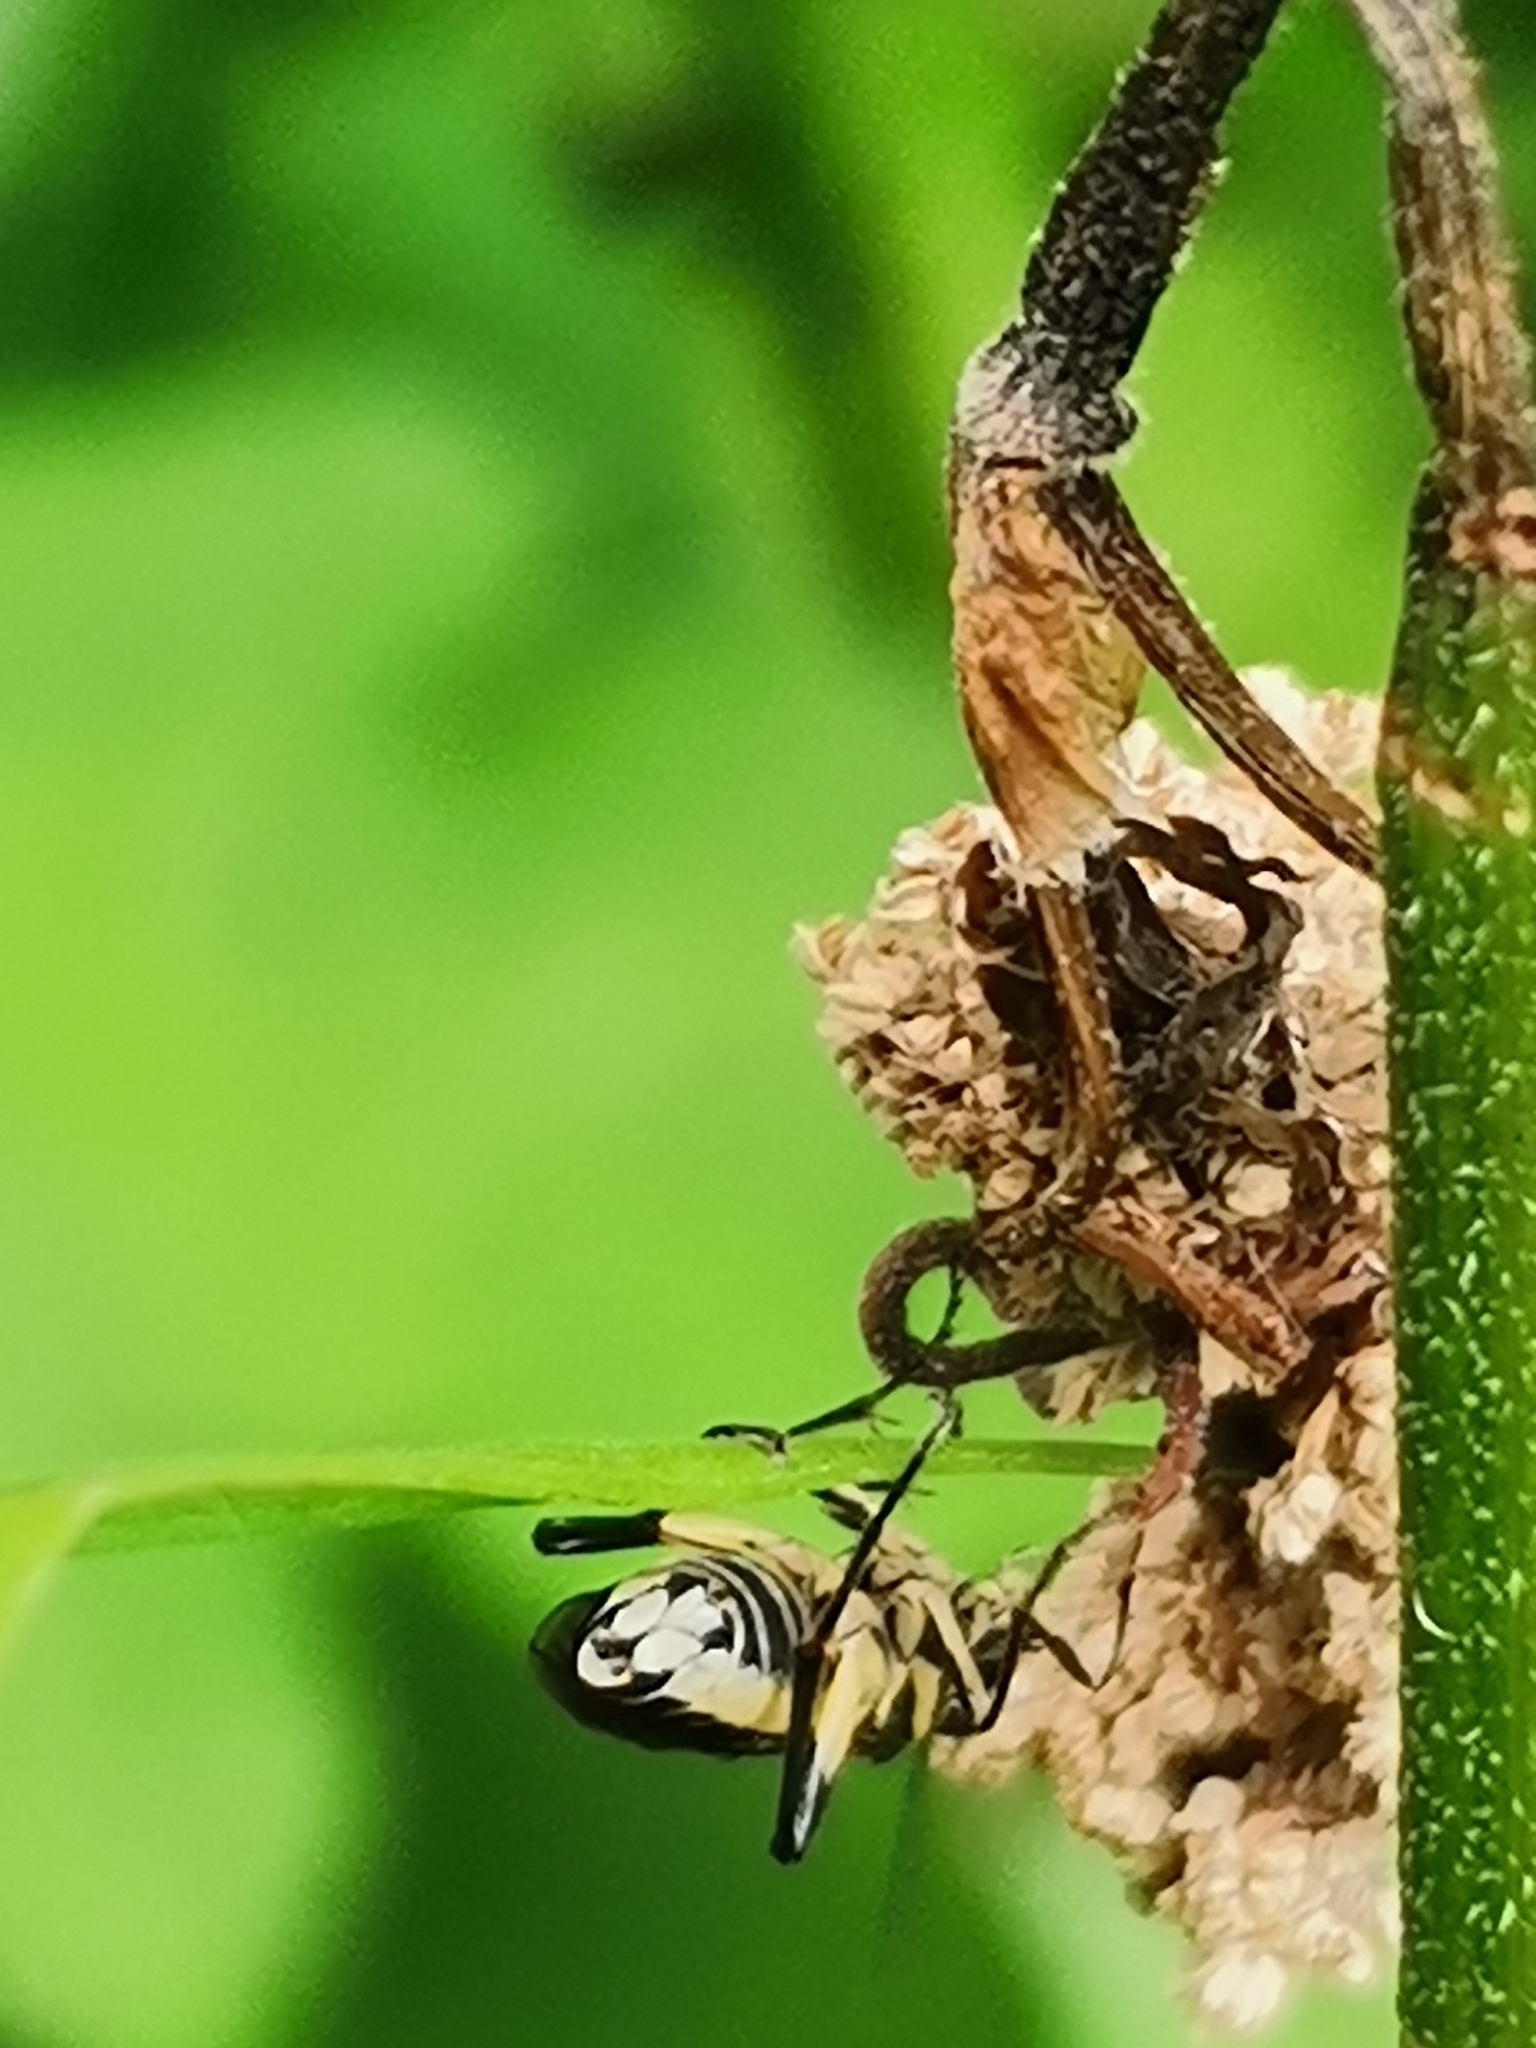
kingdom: Animalia
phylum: Arthropoda
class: Insecta
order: Hymenoptera
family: Tenthredinidae
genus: Pachyprotasis
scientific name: Pachyprotasis rapae
